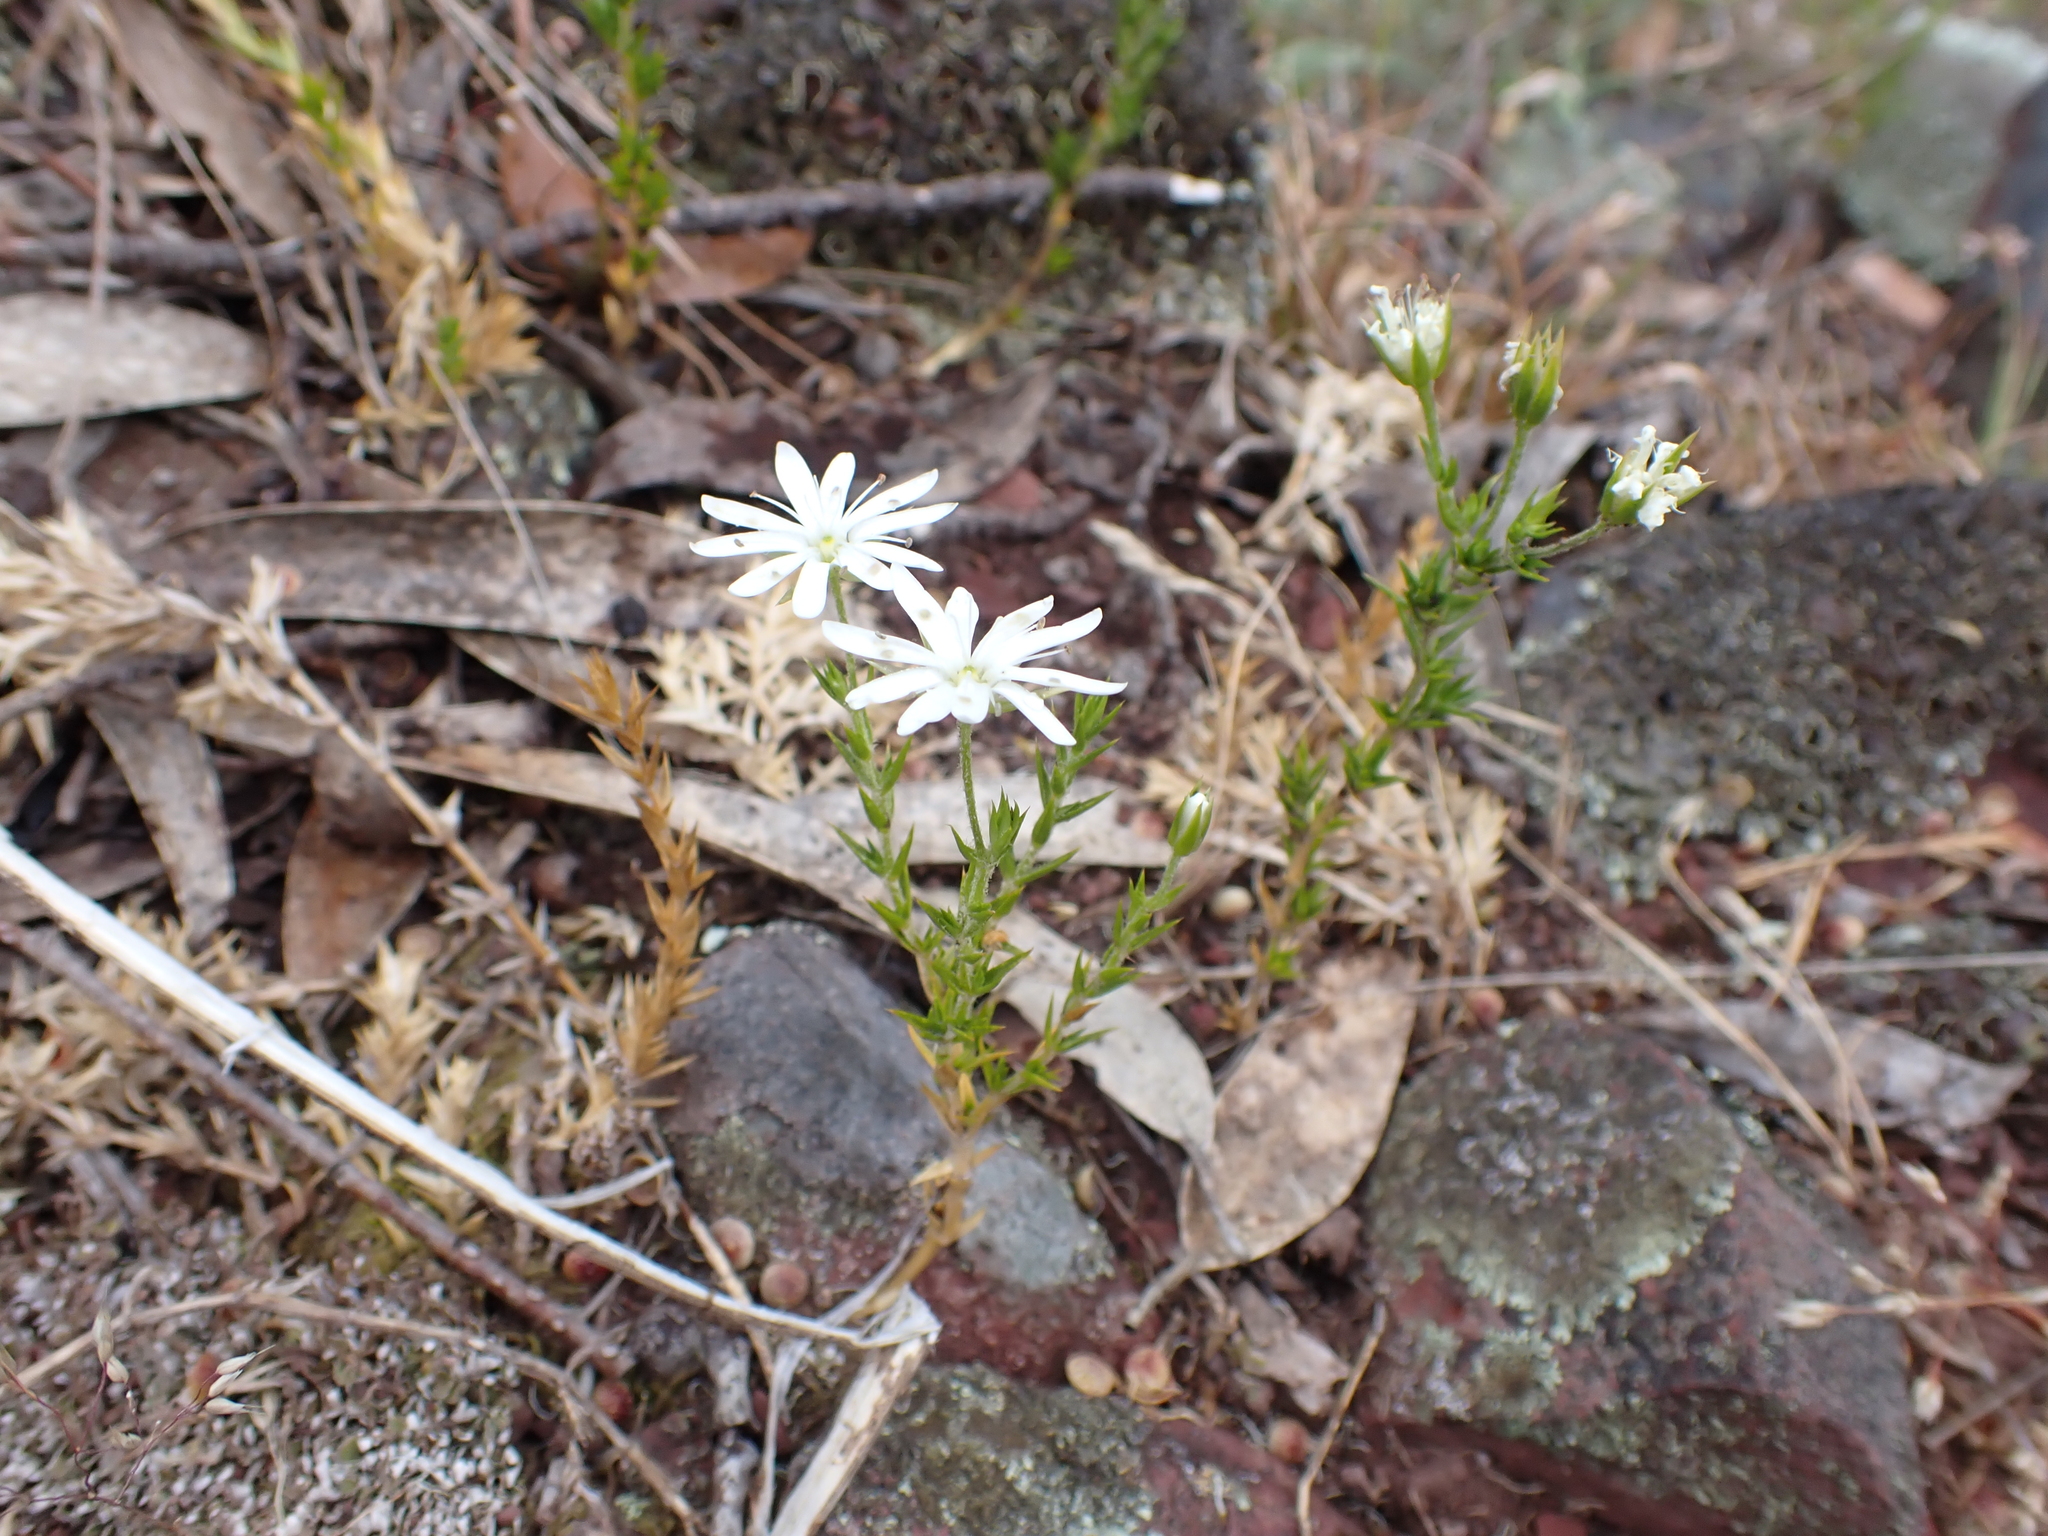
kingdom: Plantae
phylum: Tracheophyta
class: Magnoliopsida
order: Caryophyllales
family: Caryophyllaceae
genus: Stellaria
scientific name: Stellaria pungens
